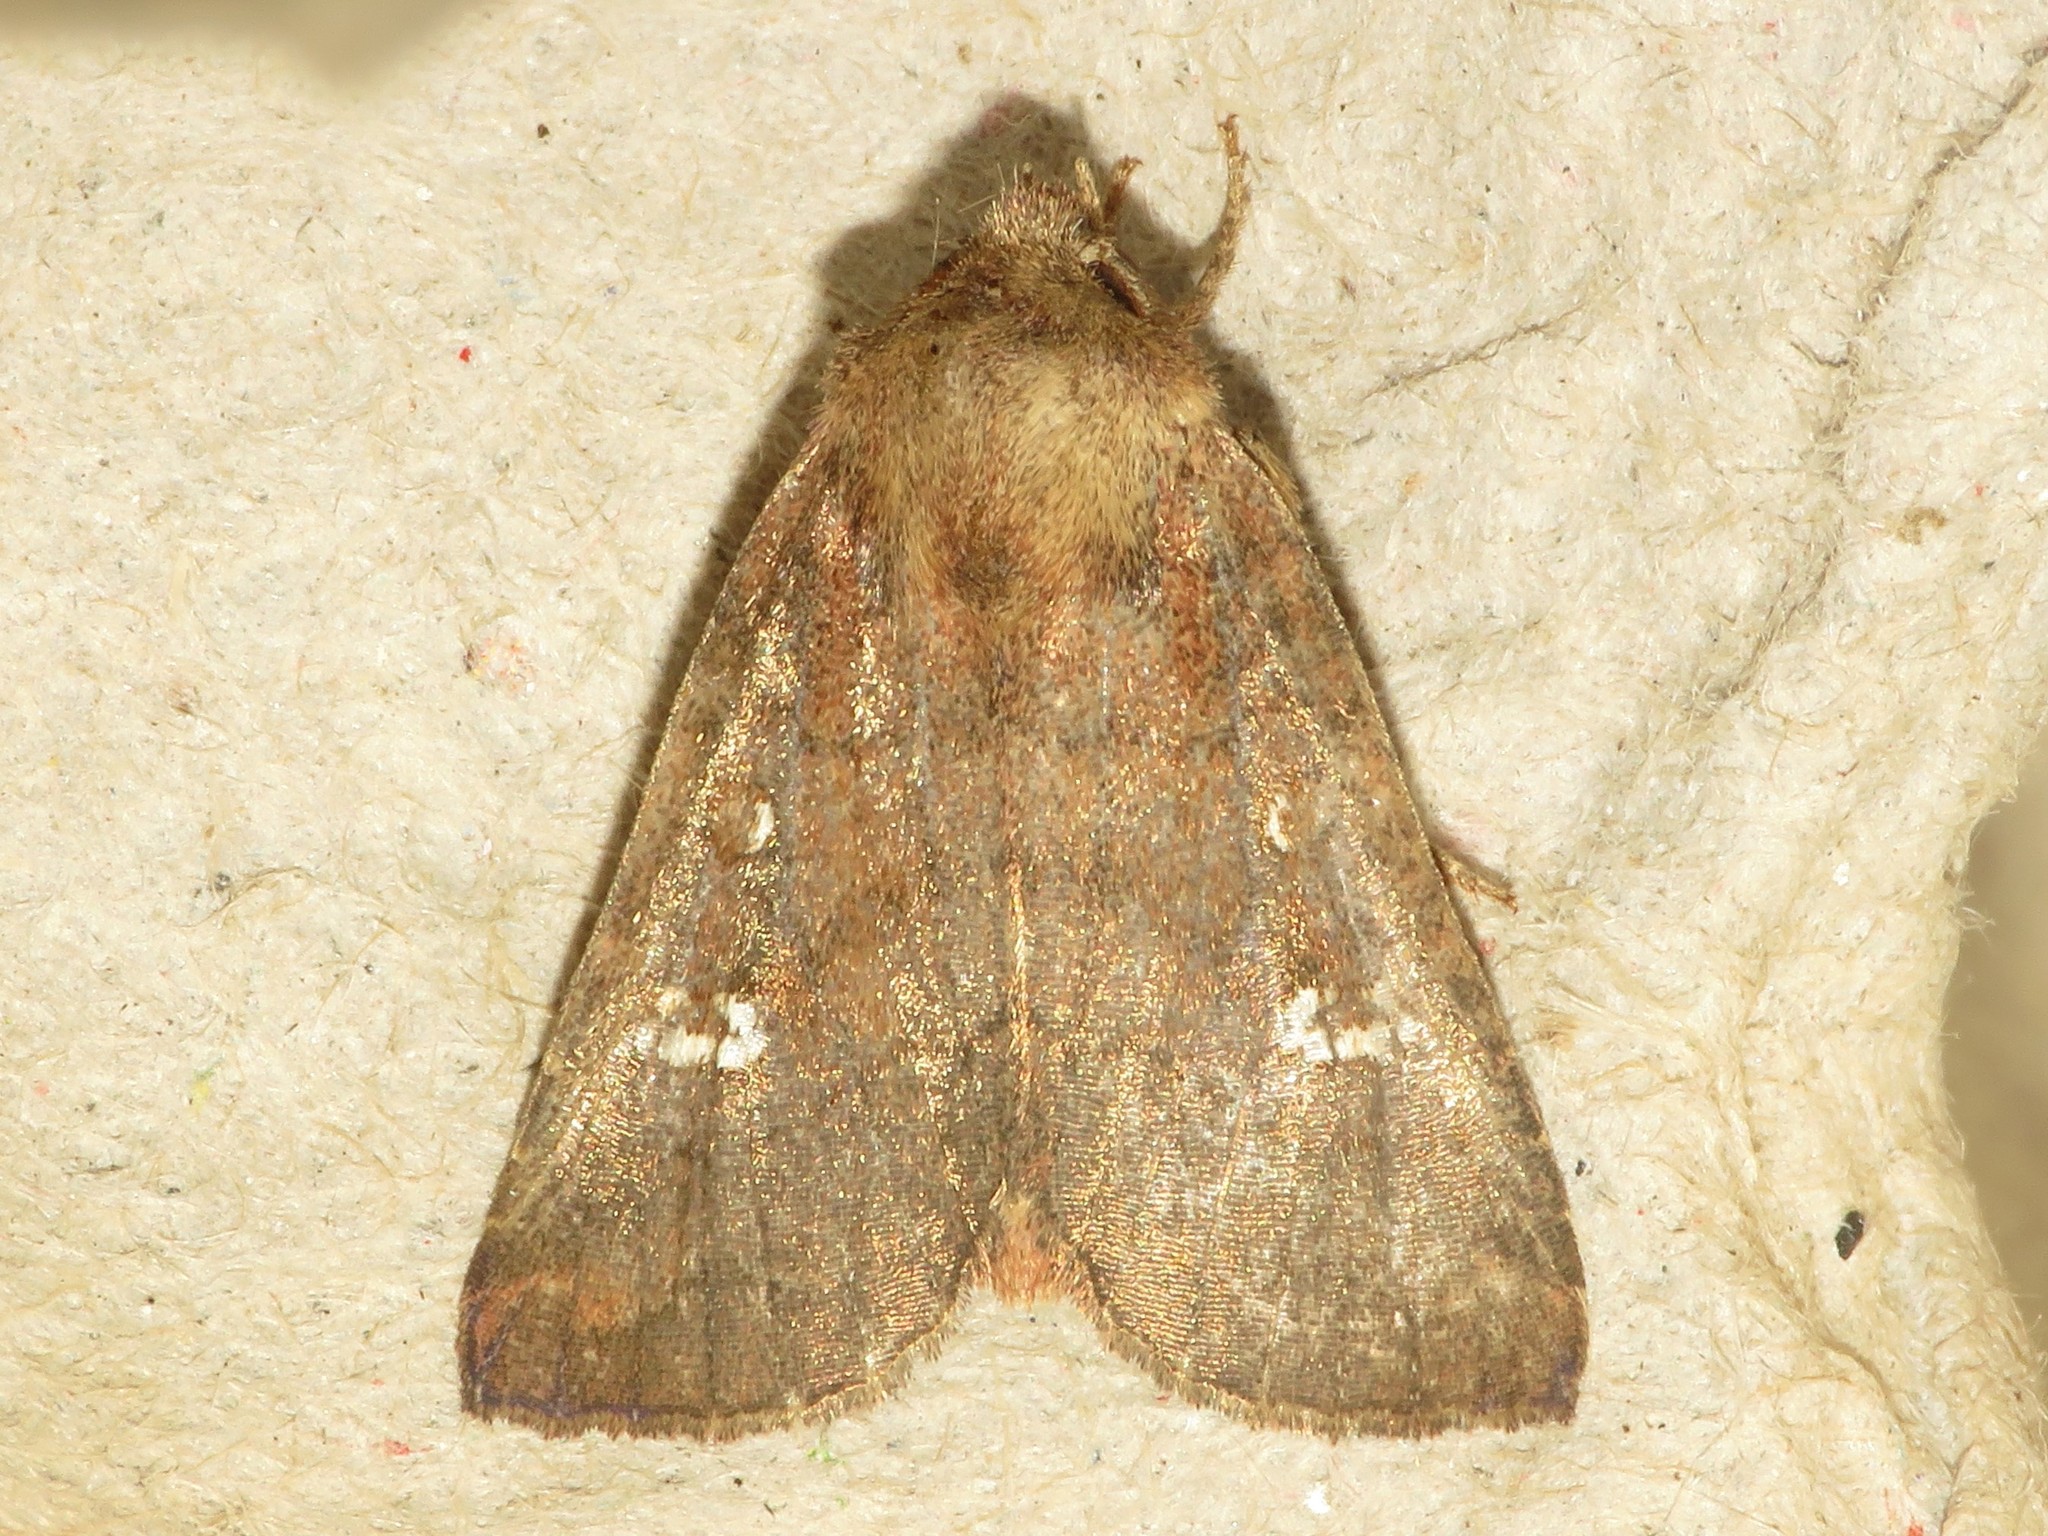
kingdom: Animalia
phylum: Arthropoda
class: Insecta
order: Lepidoptera
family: Noctuidae
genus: Tricholita
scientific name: Tricholita signata
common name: Signate quaker
